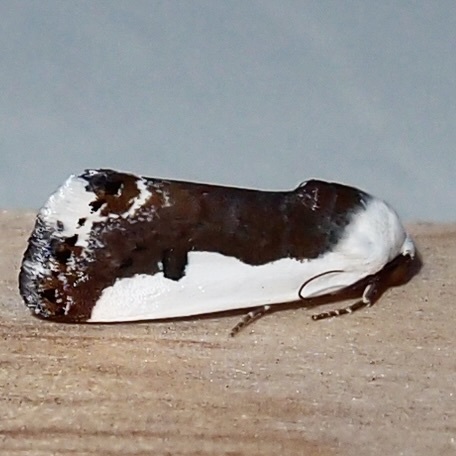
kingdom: Animalia
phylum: Arthropoda
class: Insecta
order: Lepidoptera
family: Noctuidae
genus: Acontia
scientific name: Acontia lucasi
